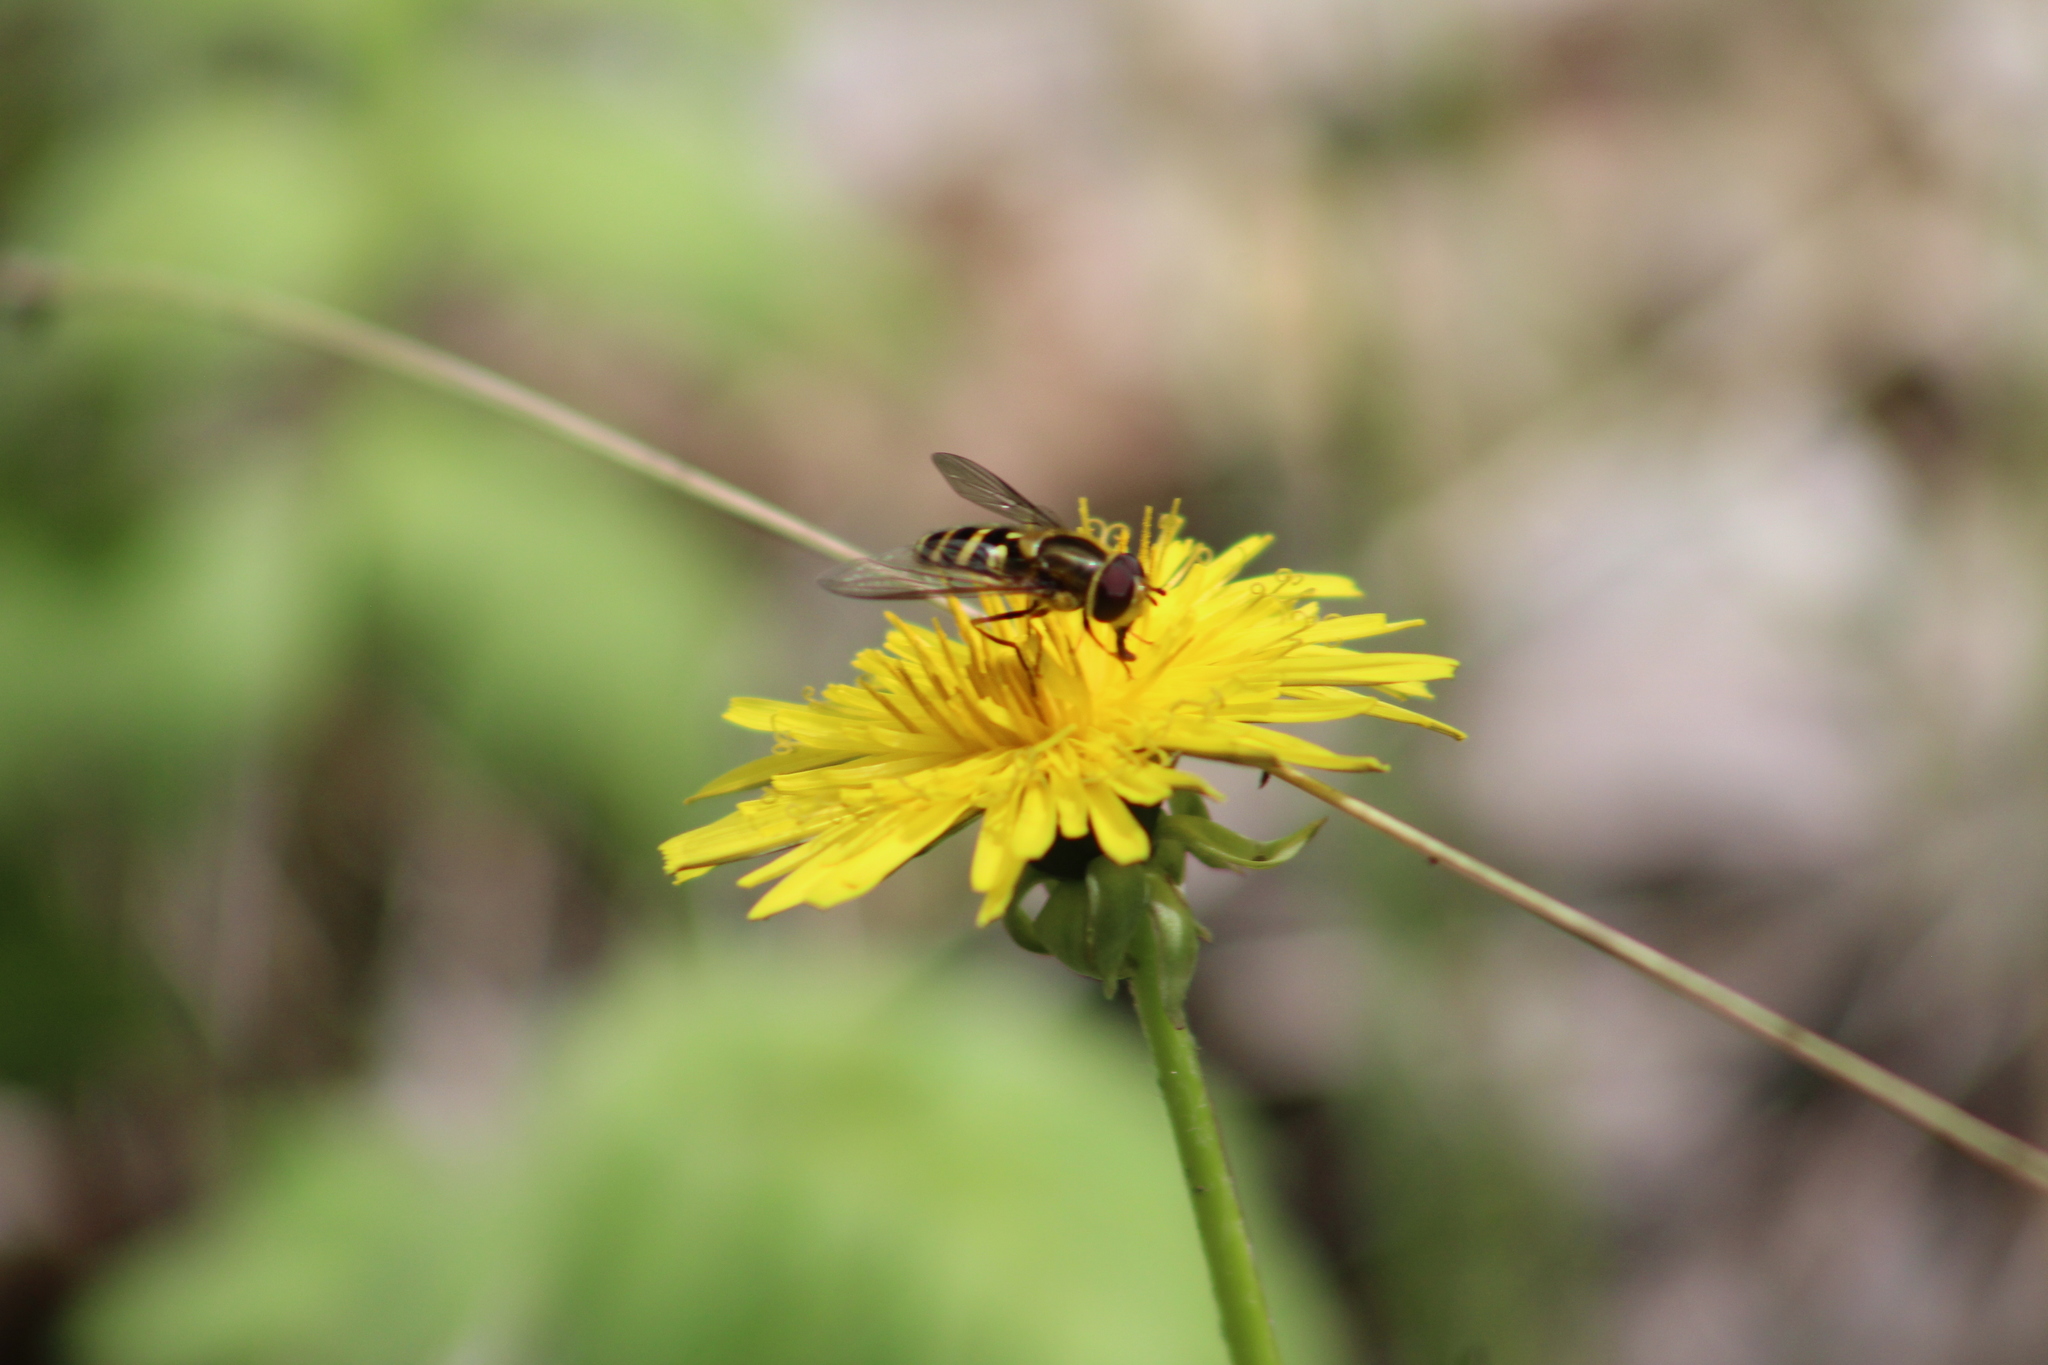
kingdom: Animalia
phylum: Arthropoda
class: Insecta
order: Diptera
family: Syrphidae
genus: Syrphus
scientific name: Syrphus opinator
